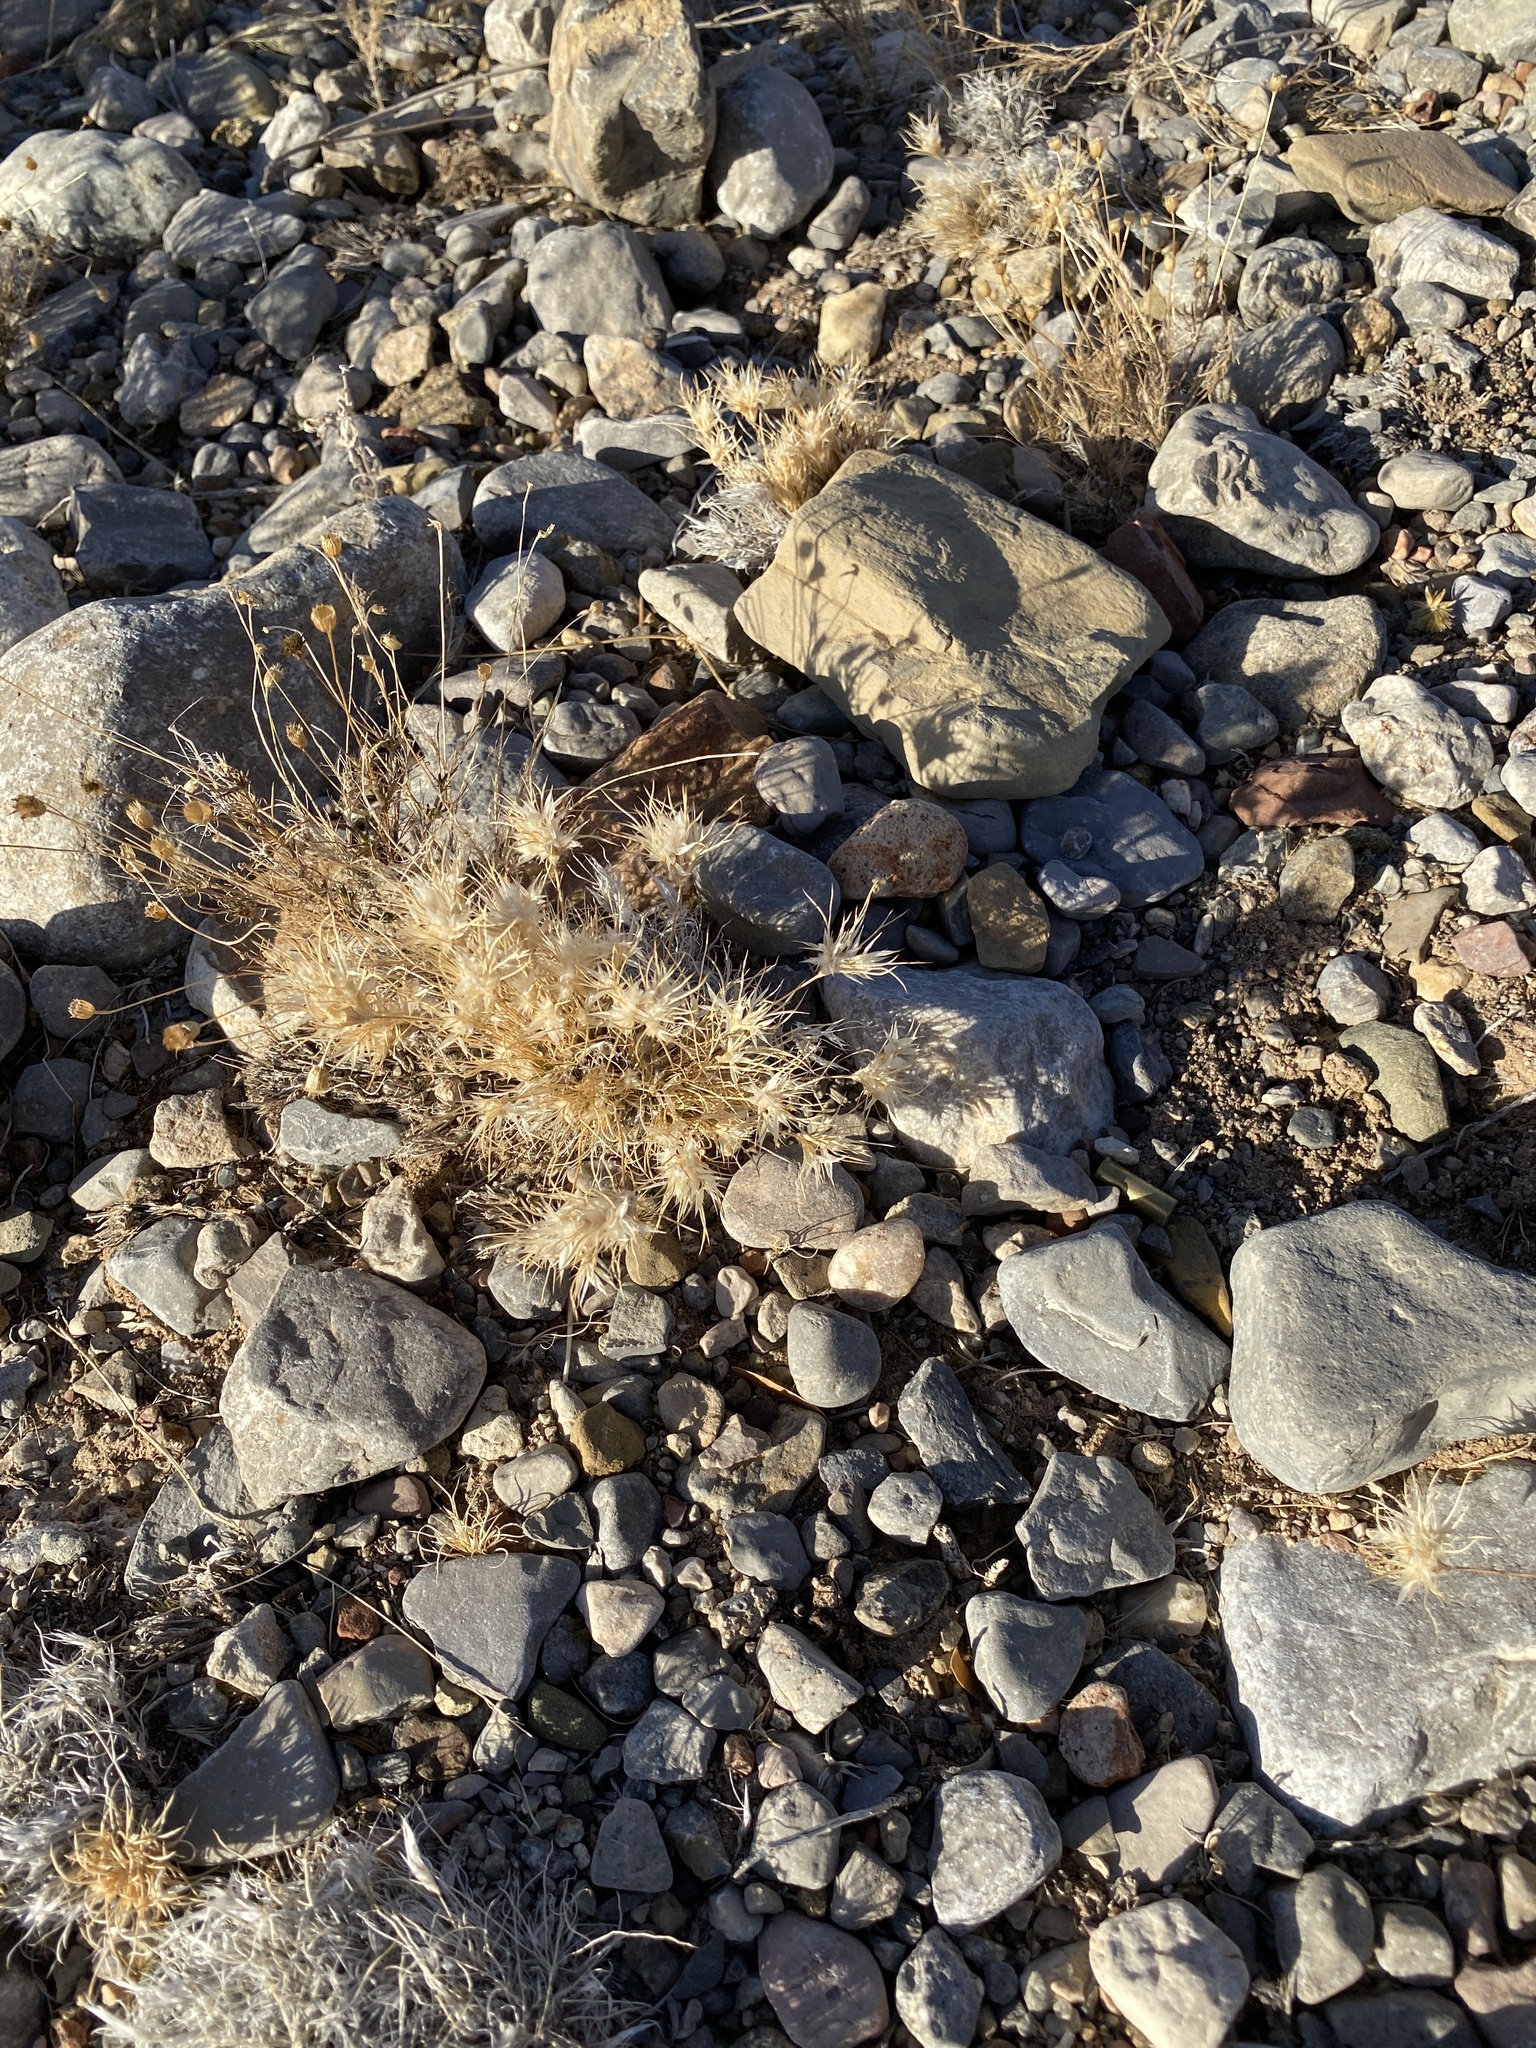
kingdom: Plantae
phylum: Tracheophyta
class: Liliopsida
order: Poales
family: Poaceae
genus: Dasyochloa
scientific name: Dasyochloa pulchella
